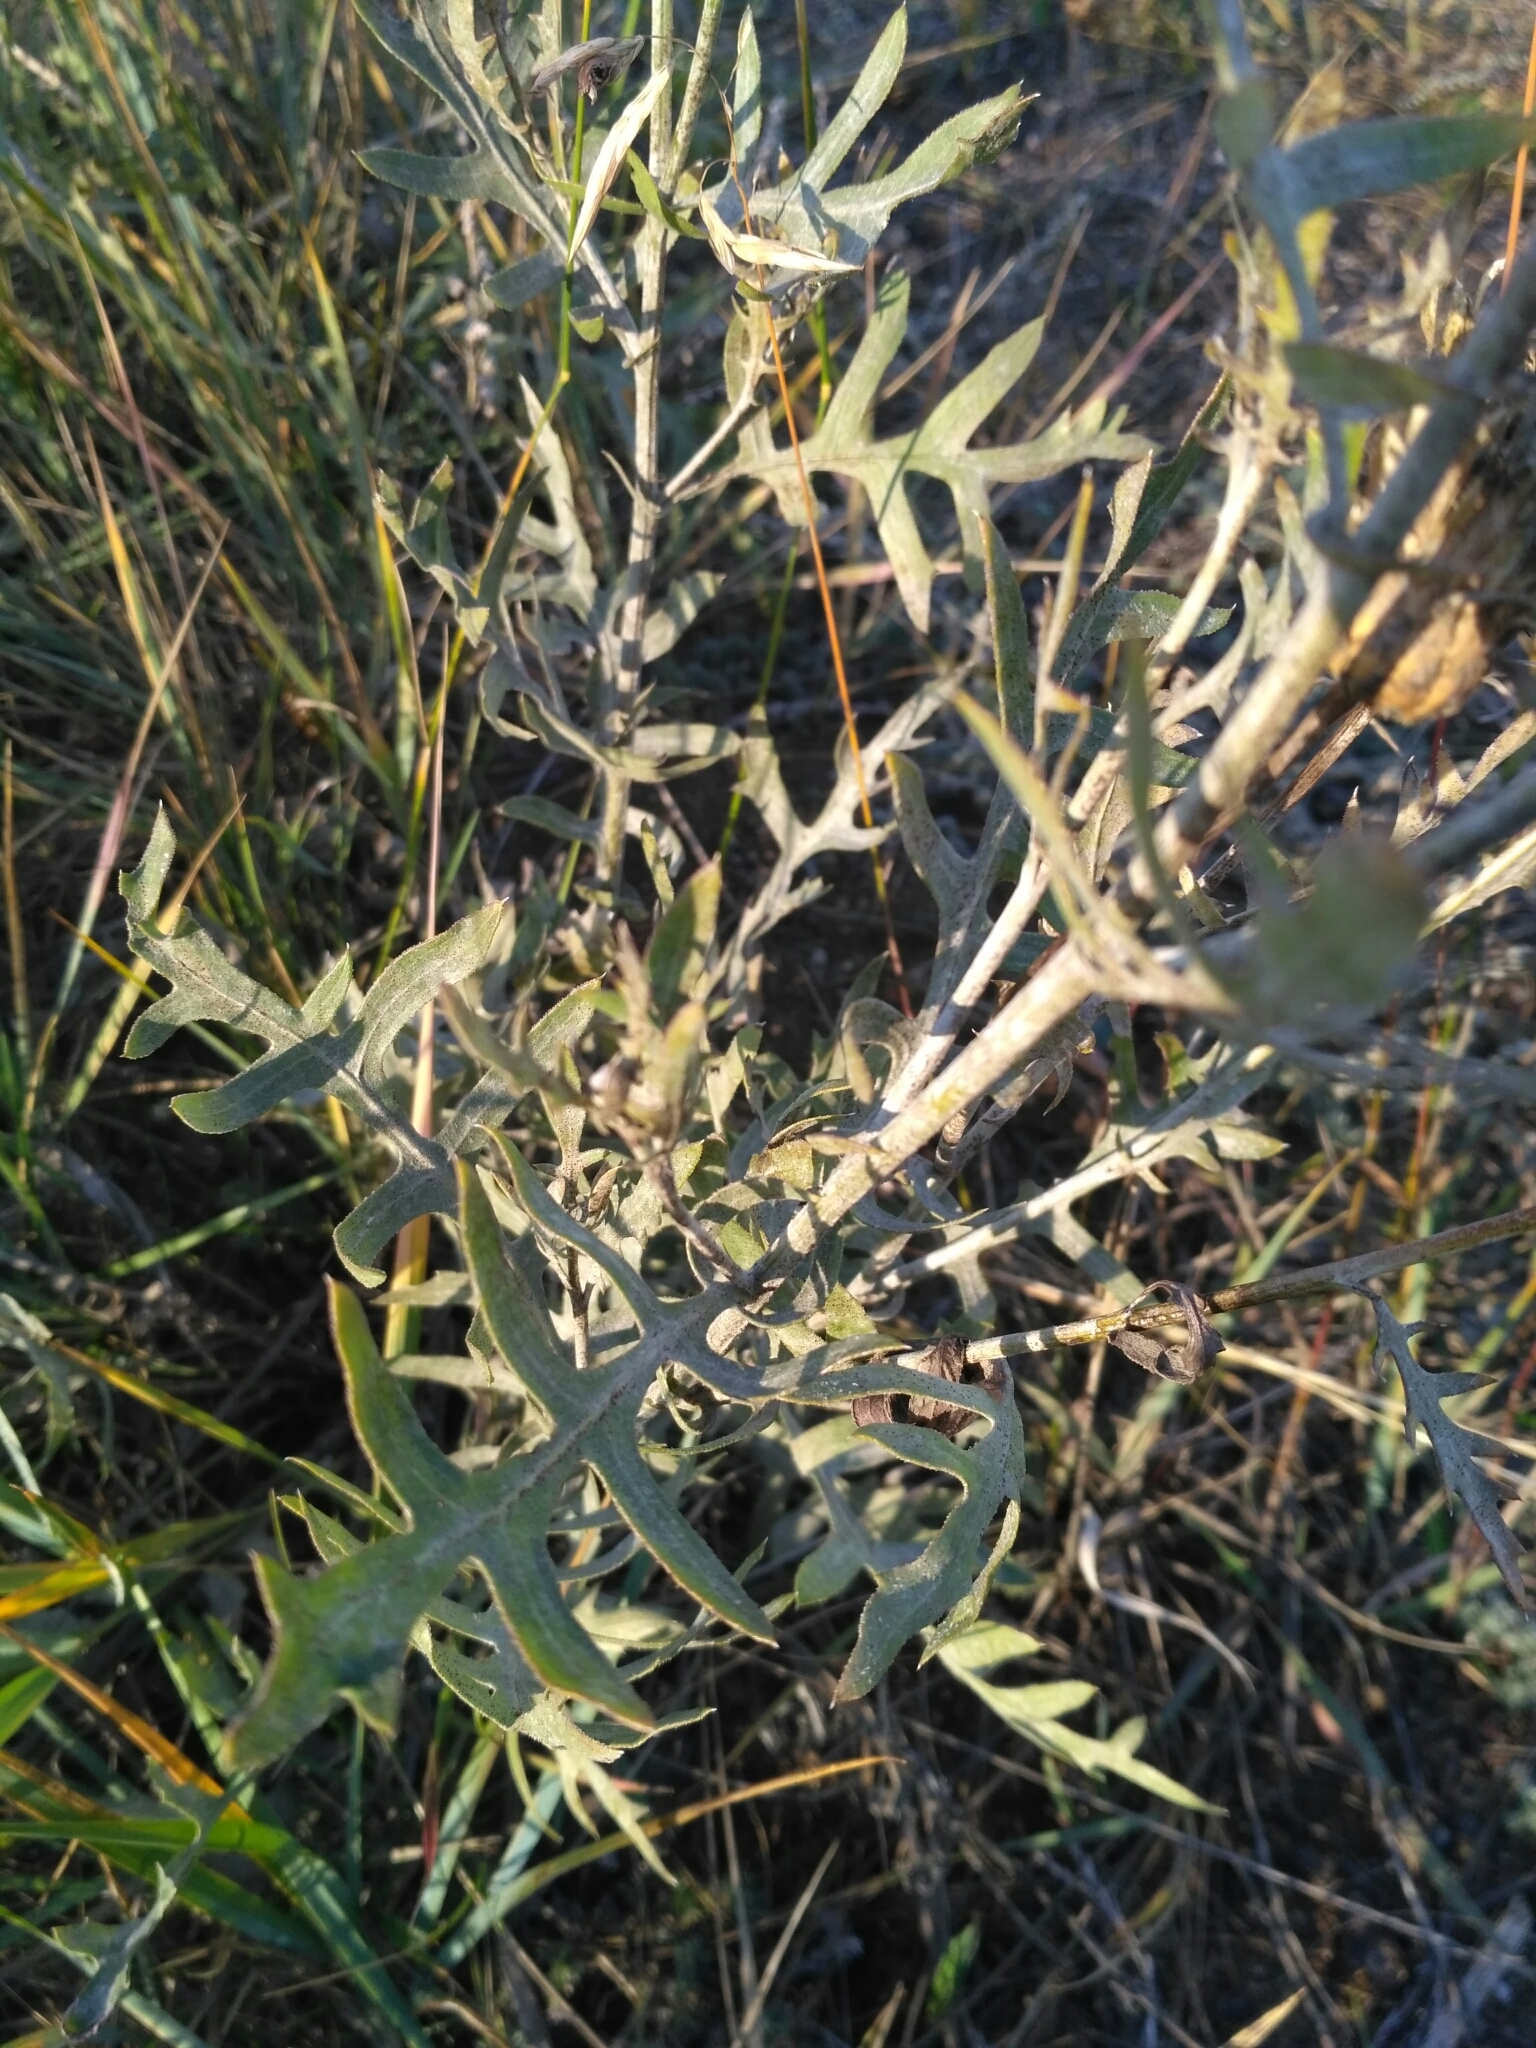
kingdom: Plantae
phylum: Tracheophyta
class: Magnoliopsida
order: Asterales
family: Asteraceae
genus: Klasea
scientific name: Klasea centauroides
